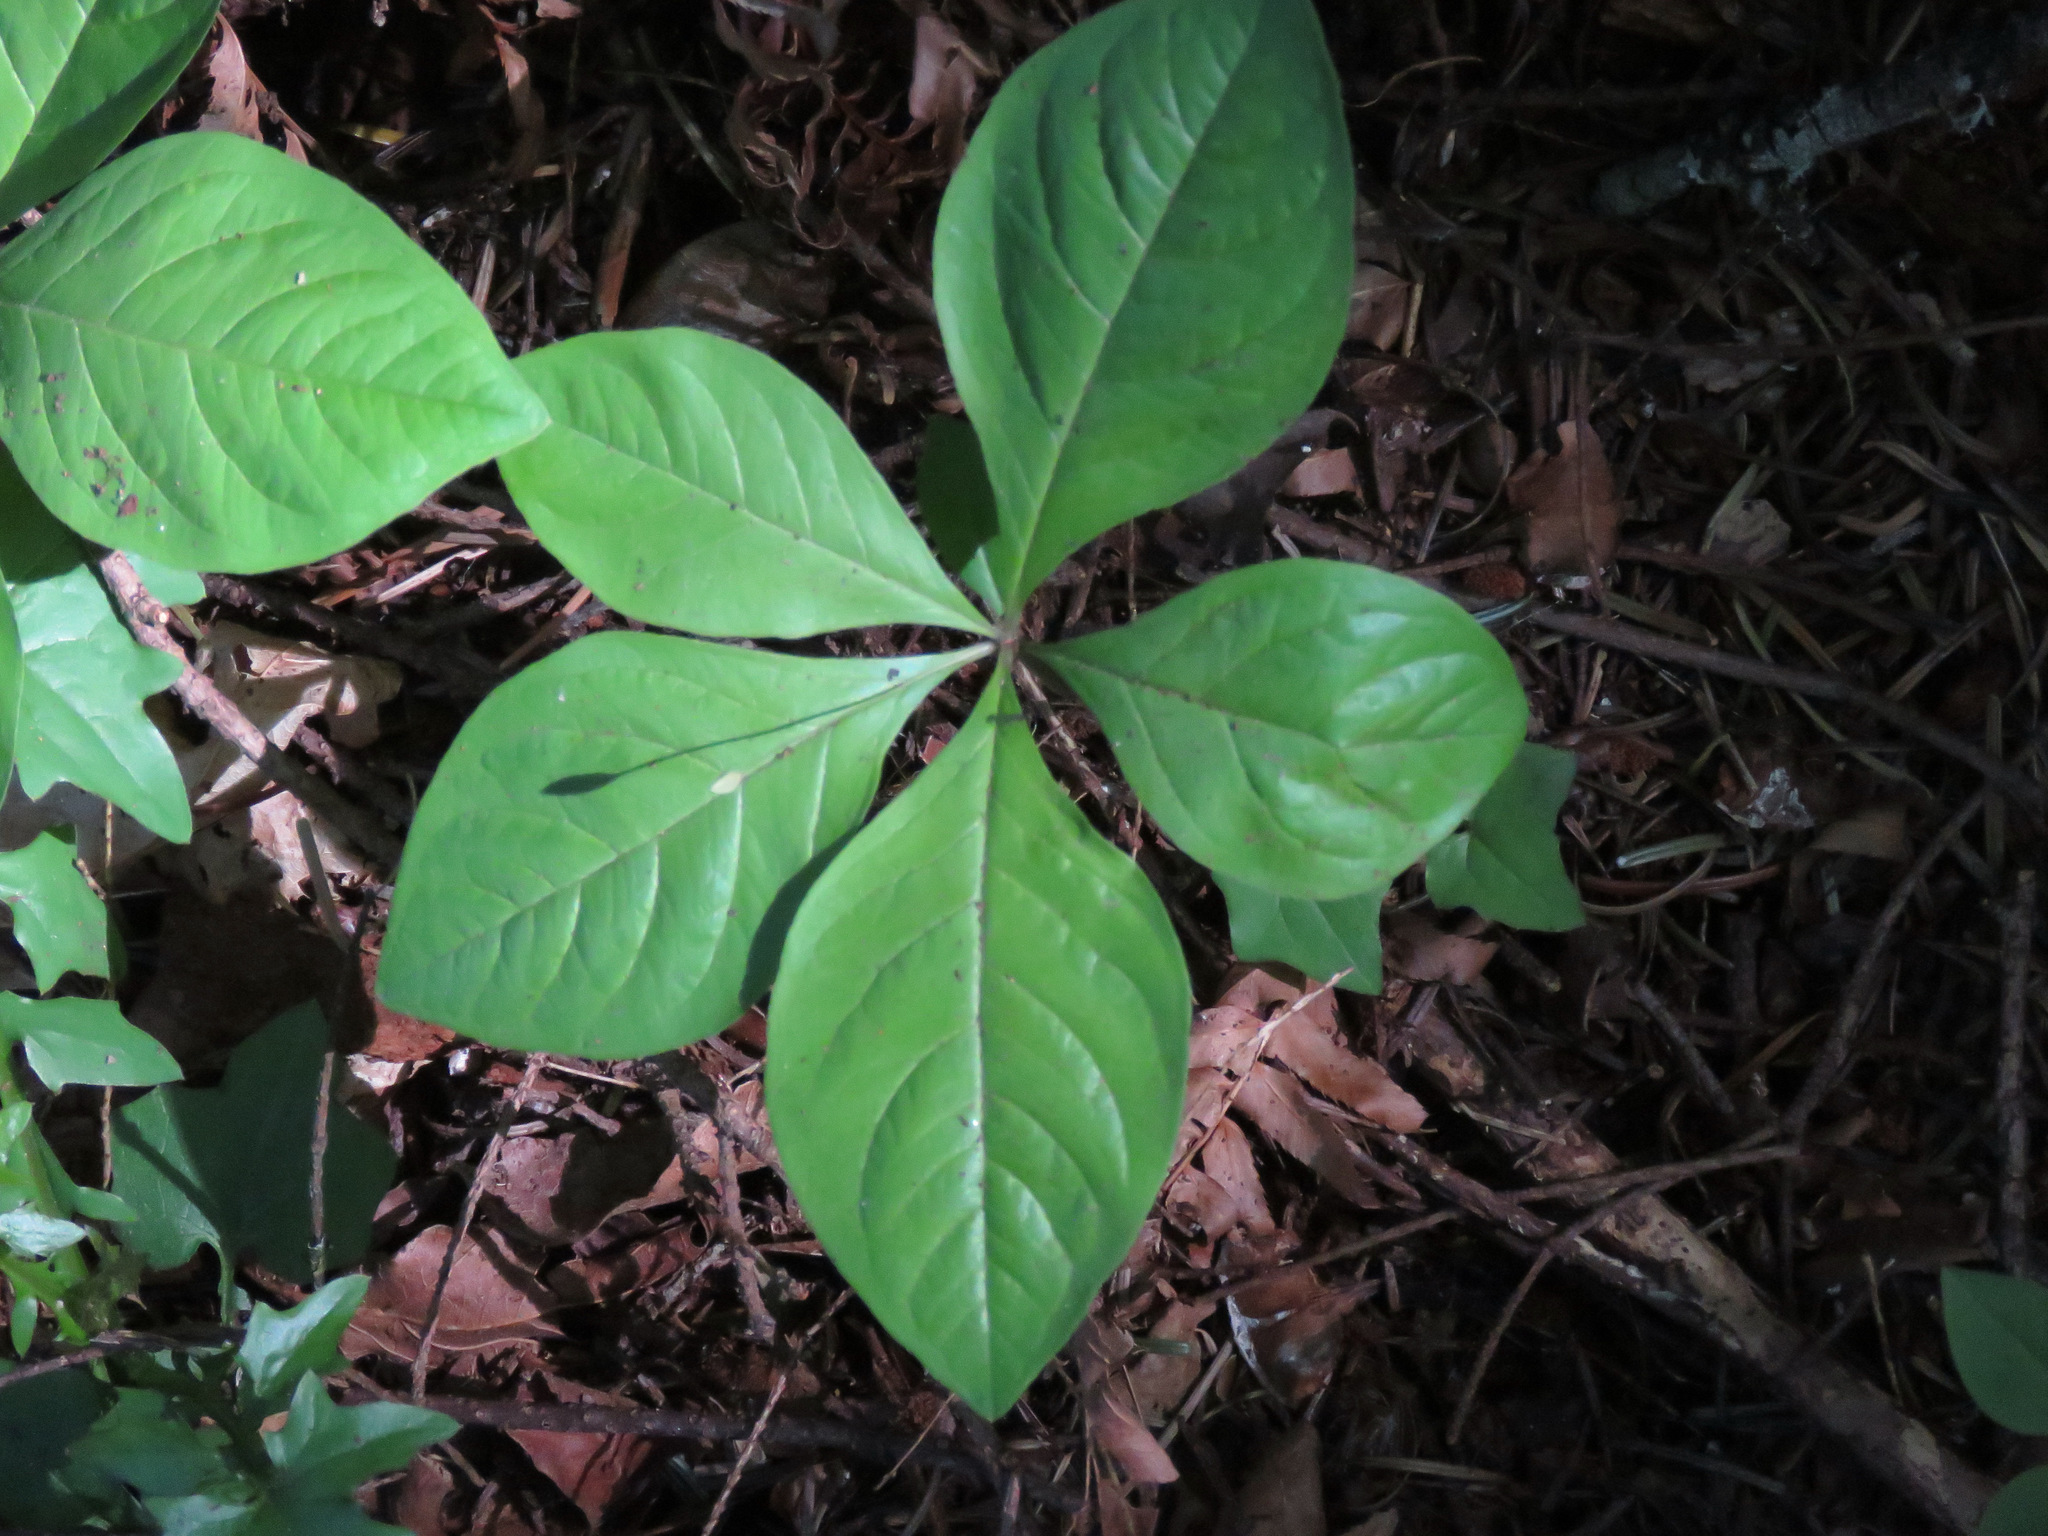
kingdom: Plantae
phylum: Tracheophyta
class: Magnoliopsida
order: Ericales
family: Primulaceae
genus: Lysimachia
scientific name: Lysimachia latifolia
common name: Pacific starflower
